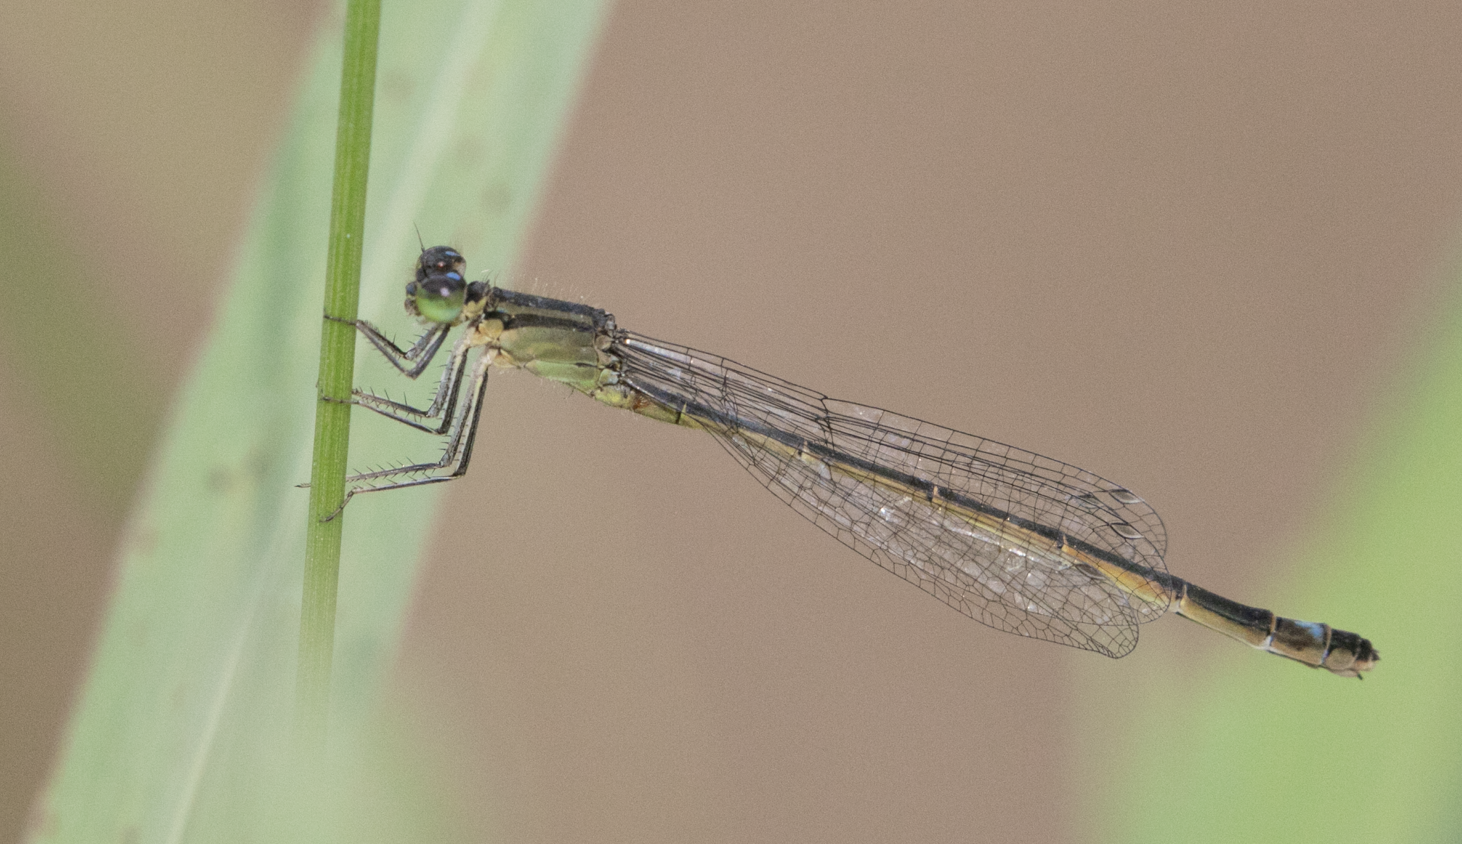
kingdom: Animalia
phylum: Arthropoda
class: Insecta
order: Odonata
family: Coenagrionidae
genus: Ischnura
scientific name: Ischnura elegans
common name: Blue-tailed damselfly
